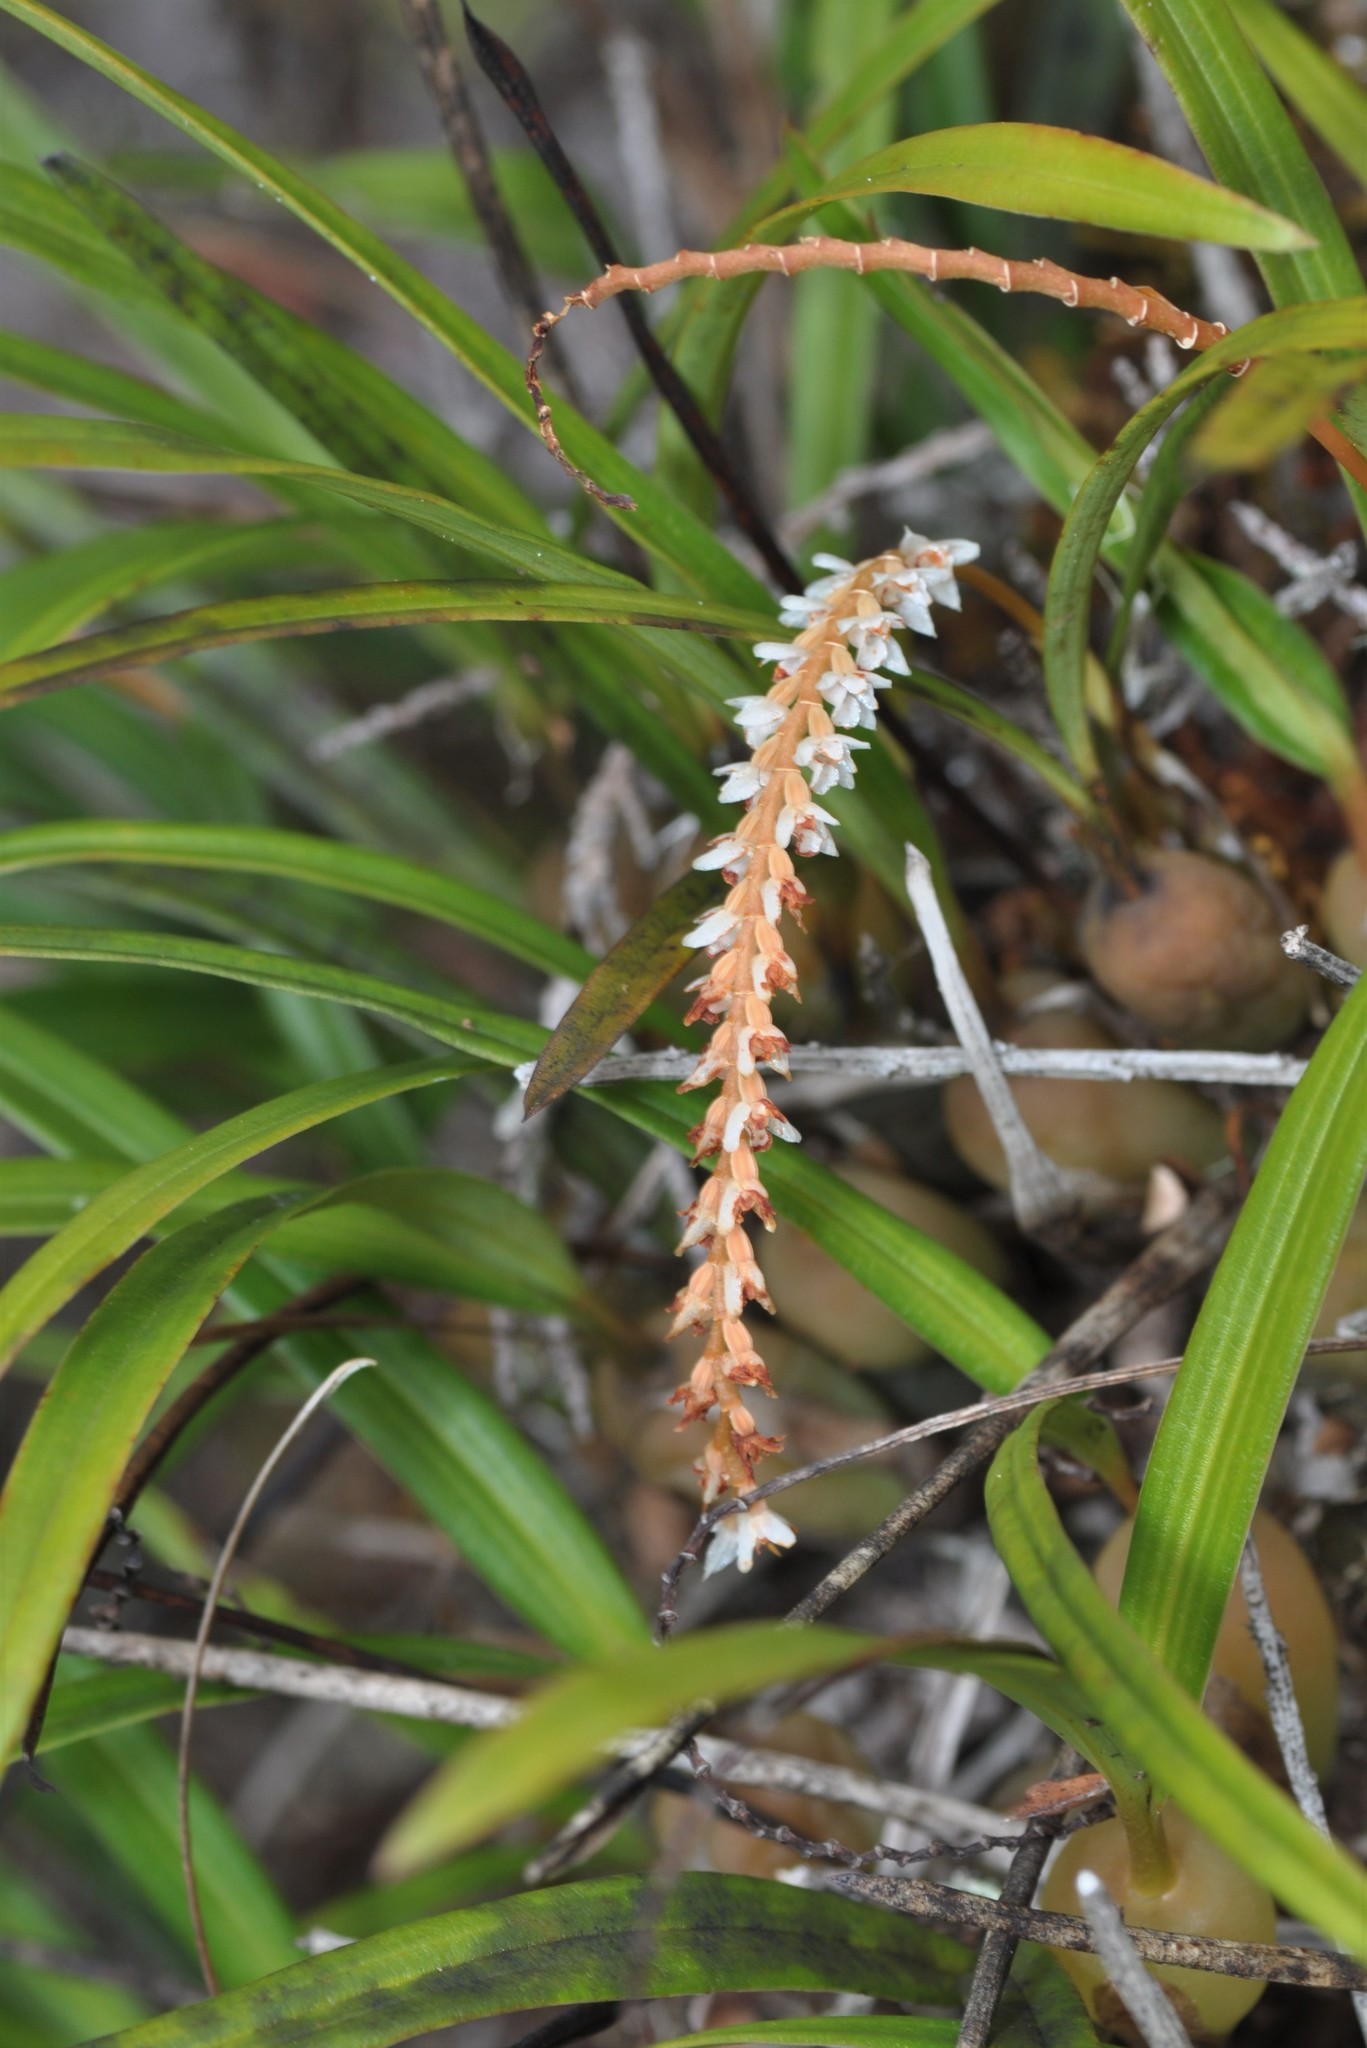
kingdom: Plantae
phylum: Tracheophyta
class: Liliopsida
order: Asparagales
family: Orchidaceae
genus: Coelogyne
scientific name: Coelogyne globosa
